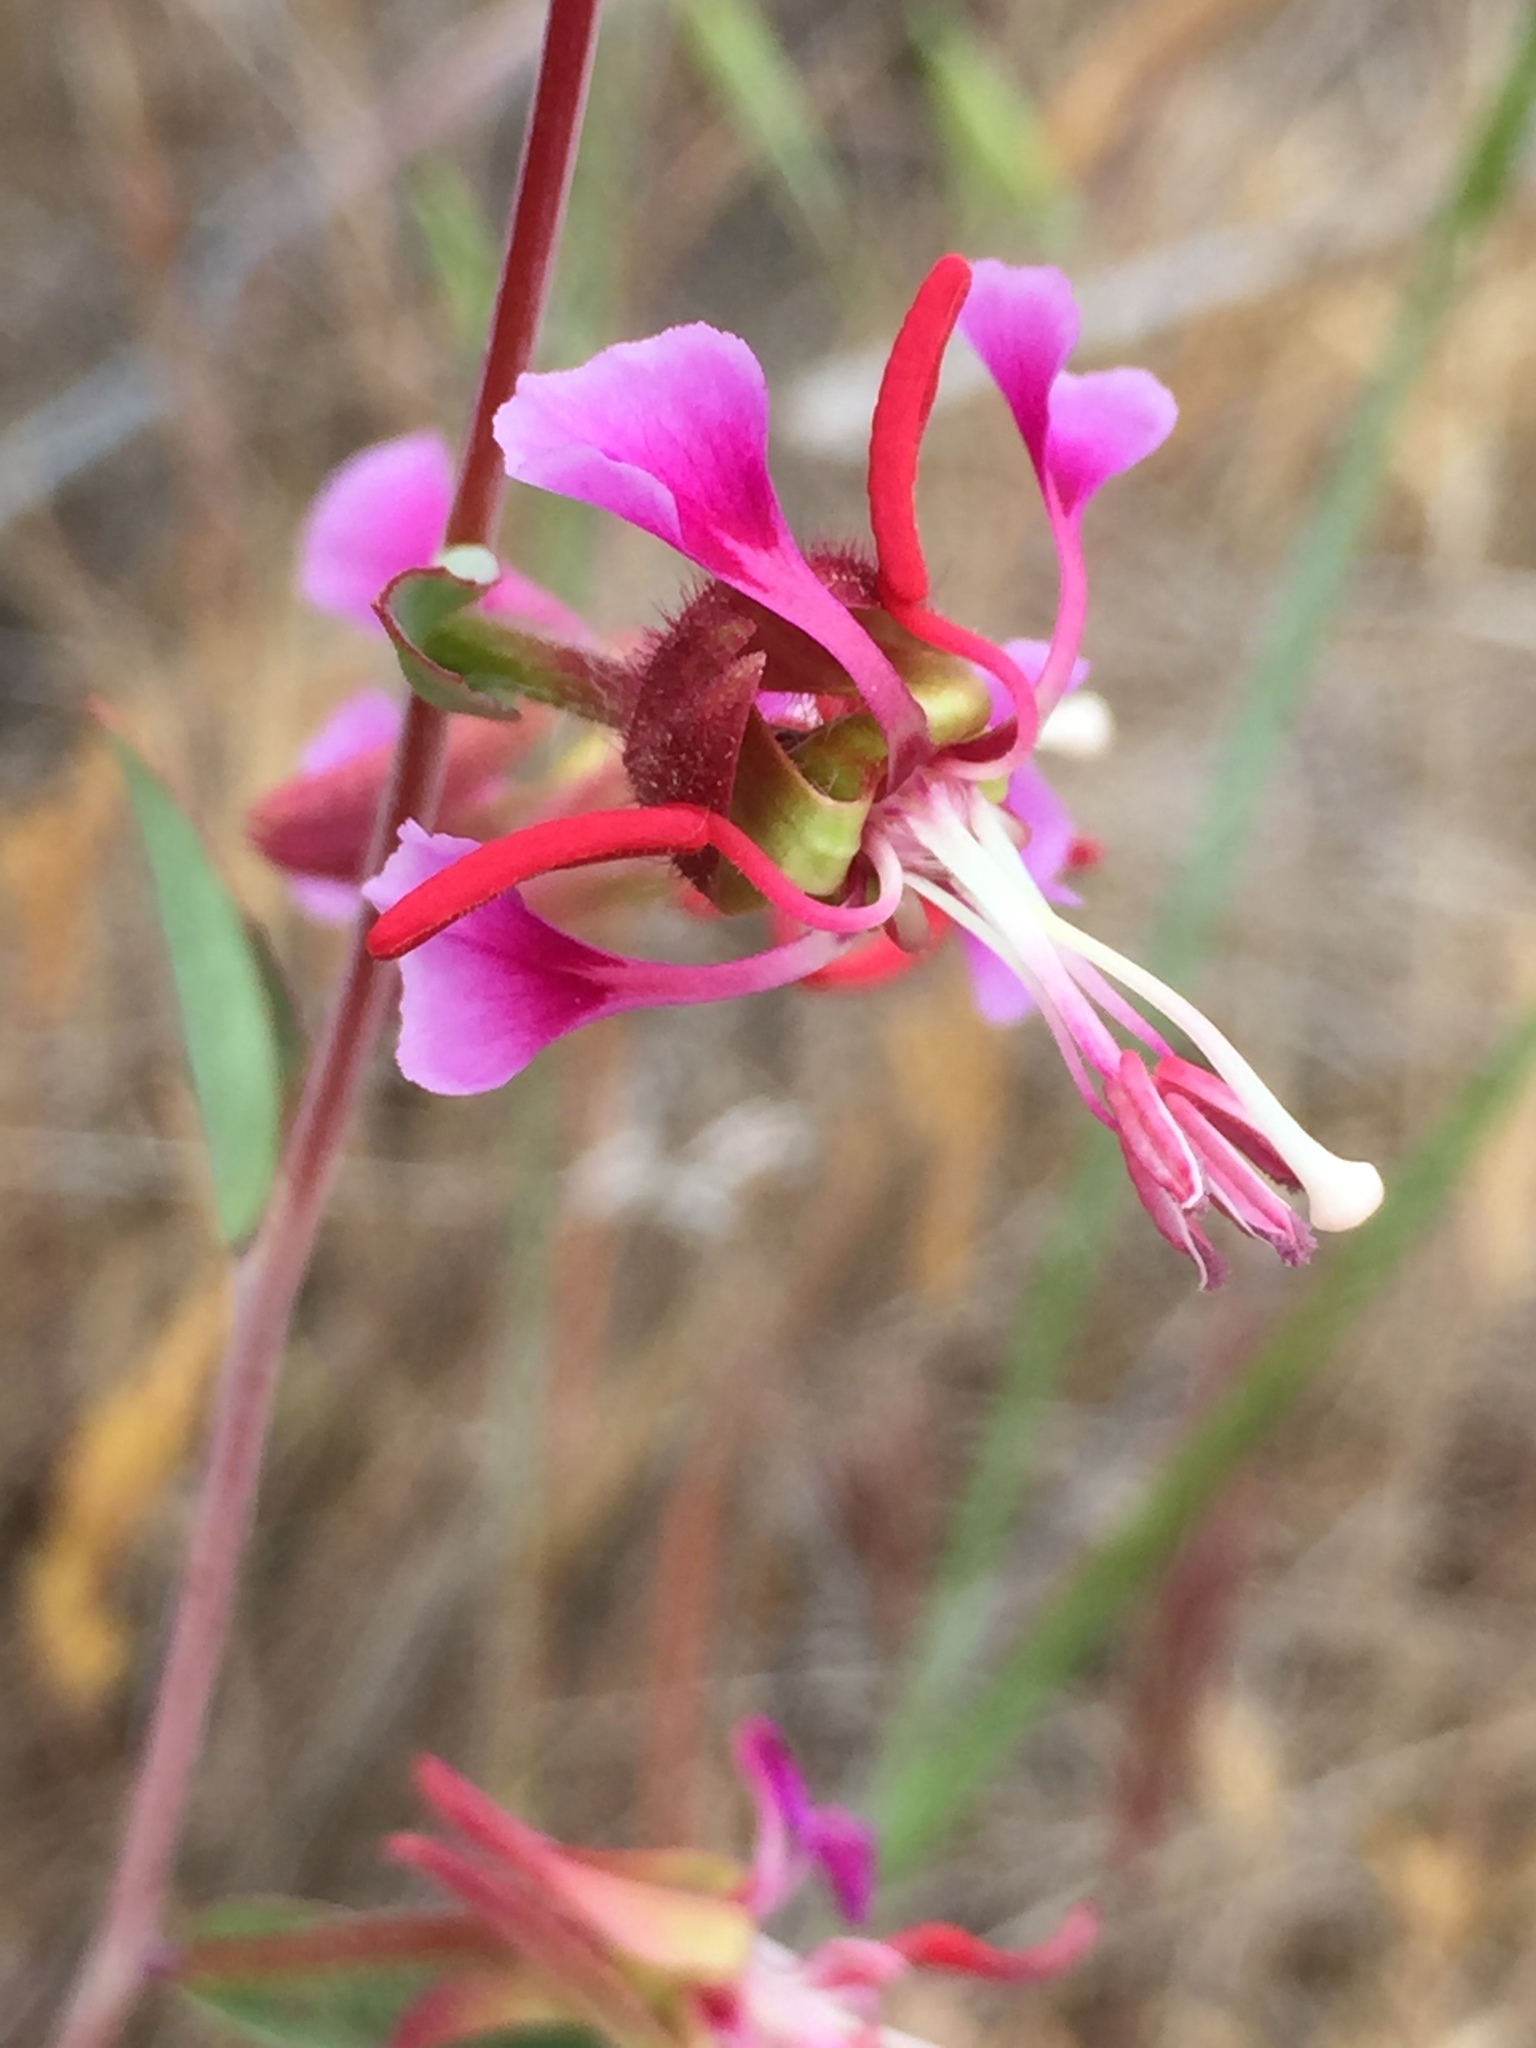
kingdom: Plantae
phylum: Tracheophyta
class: Magnoliopsida
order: Myrtales
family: Onagraceae
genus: Clarkia
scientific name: Clarkia unguiculata
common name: Clarkia
